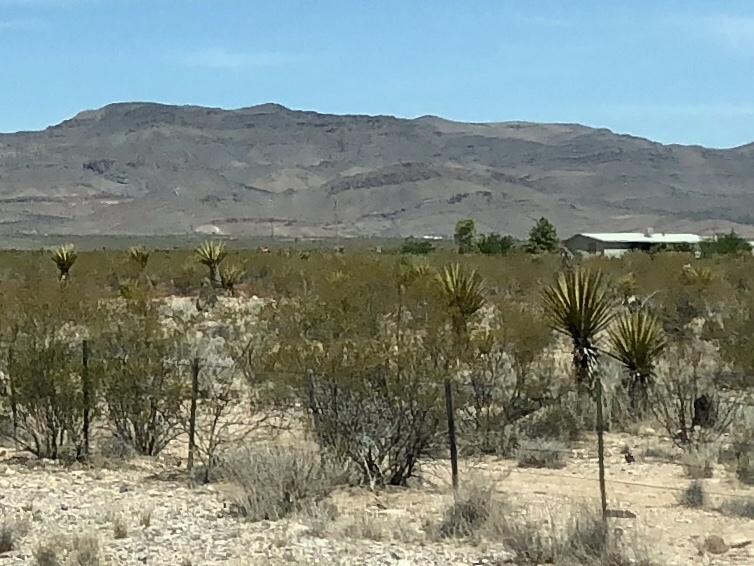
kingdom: Plantae
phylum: Tracheophyta
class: Magnoliopsida
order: Zygophyllales
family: Zygophyllaceae
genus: Larrea
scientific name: Larrea tridentata
